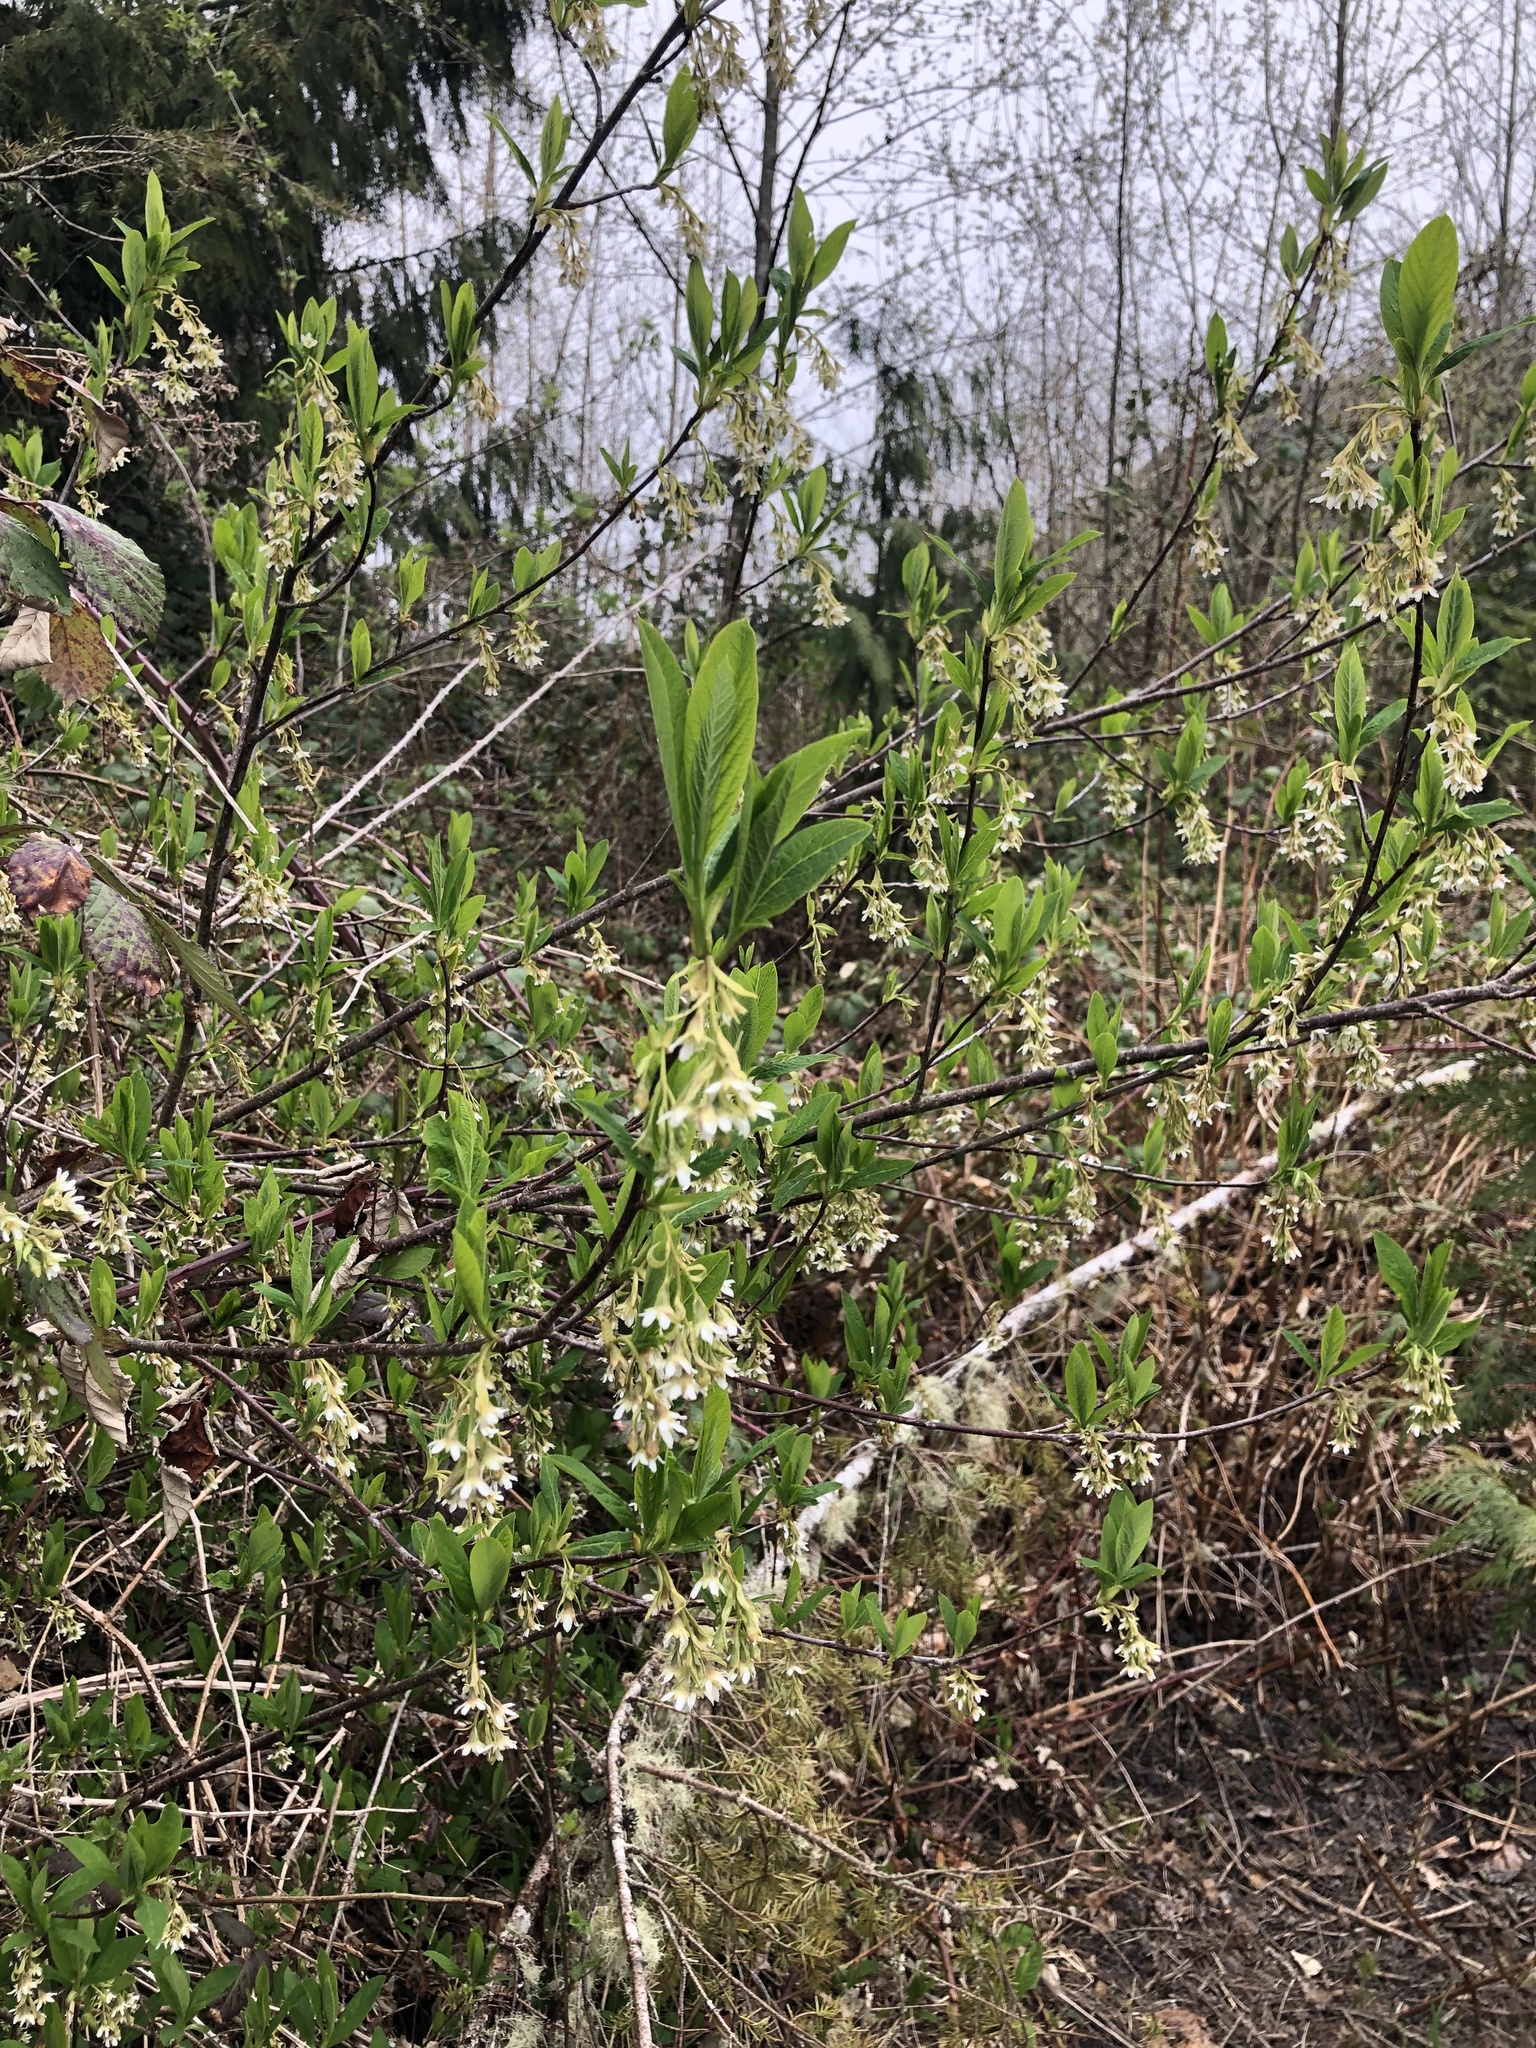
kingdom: Plantae
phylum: Tracheophyta
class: Magnoliopsida
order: Rosales
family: Rosaceae
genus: Oemleria
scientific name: Oemleria cerasiformis
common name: Osoberry
